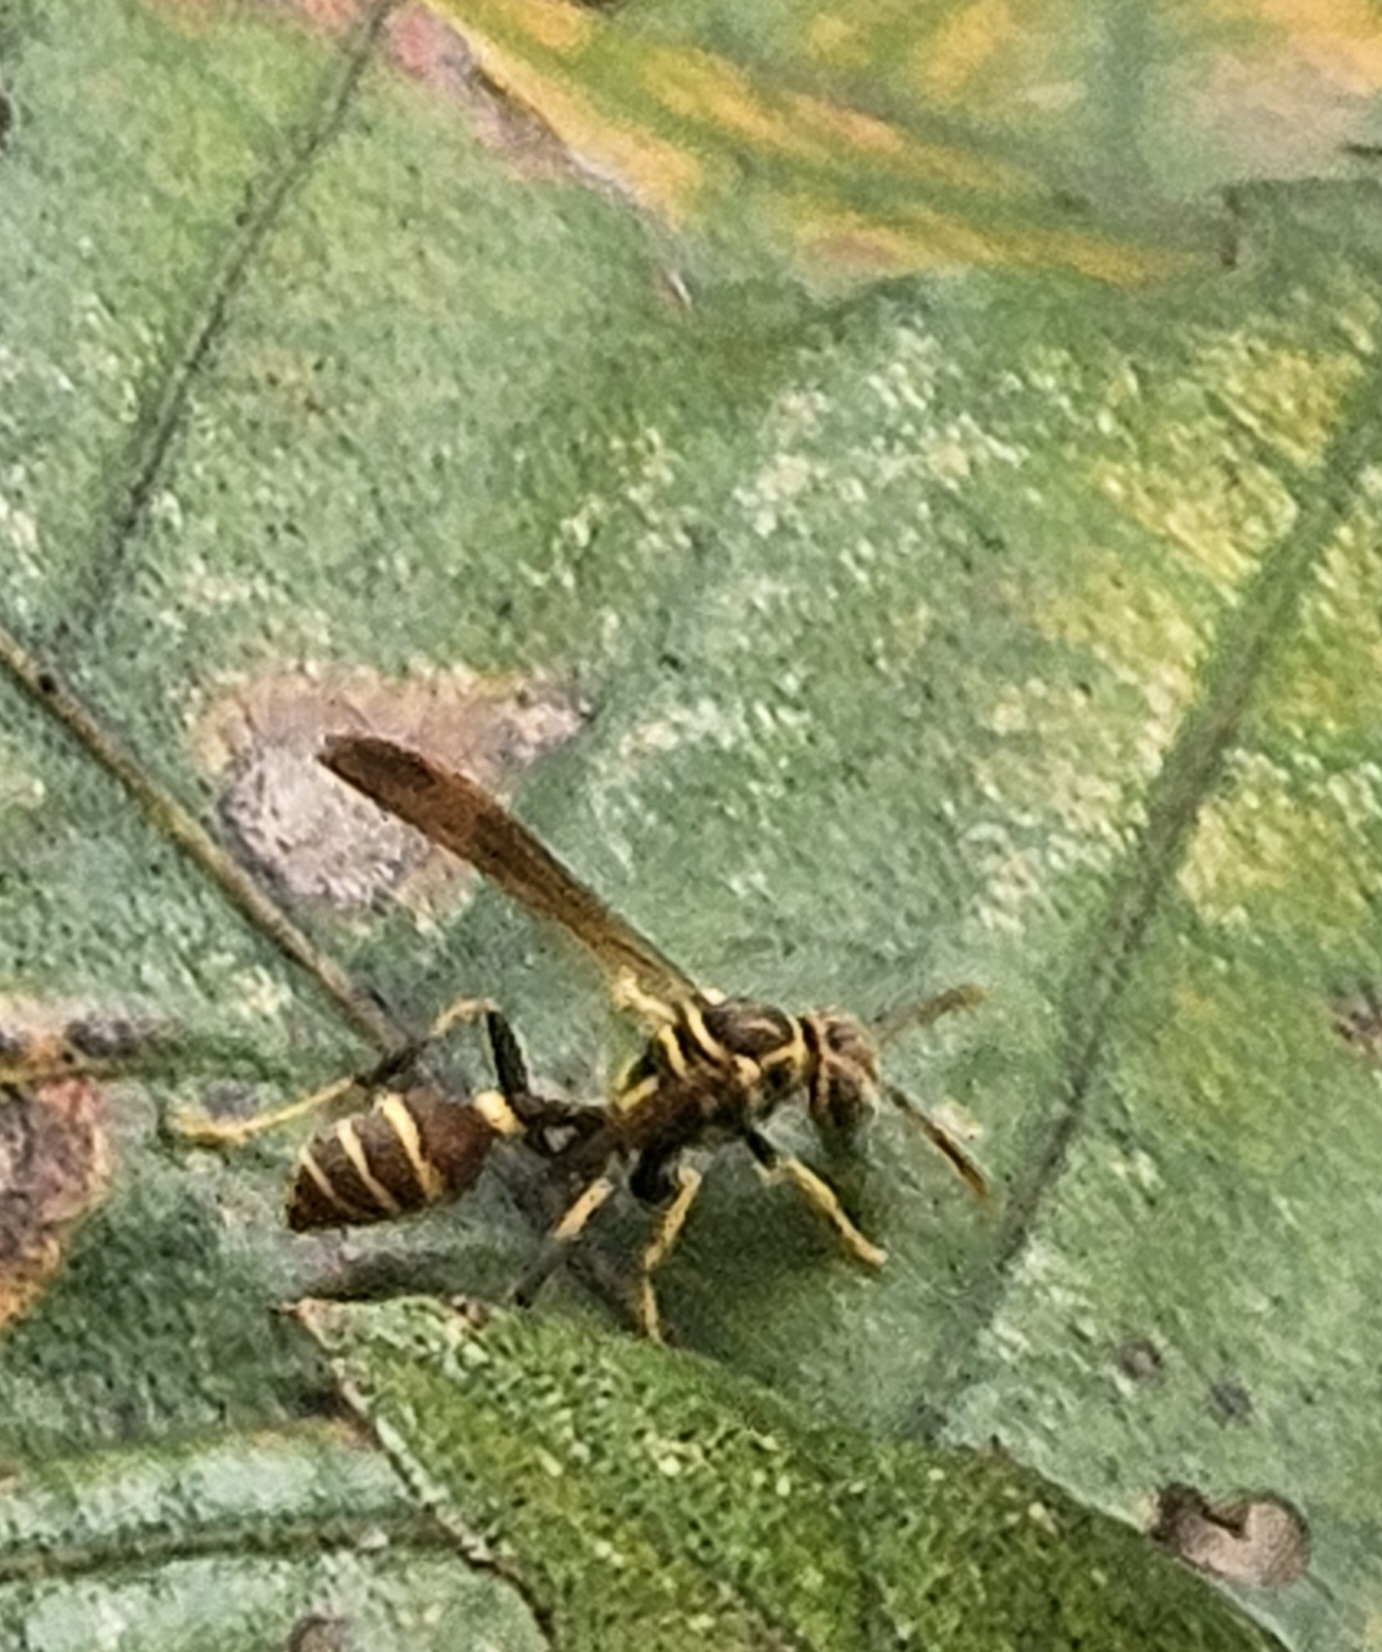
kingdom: Animalia
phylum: Arthropoda
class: Insecta
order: Hymenoptera
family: Vespidae
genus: Mischocyttarus
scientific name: Mischocyttarus mexicanus
